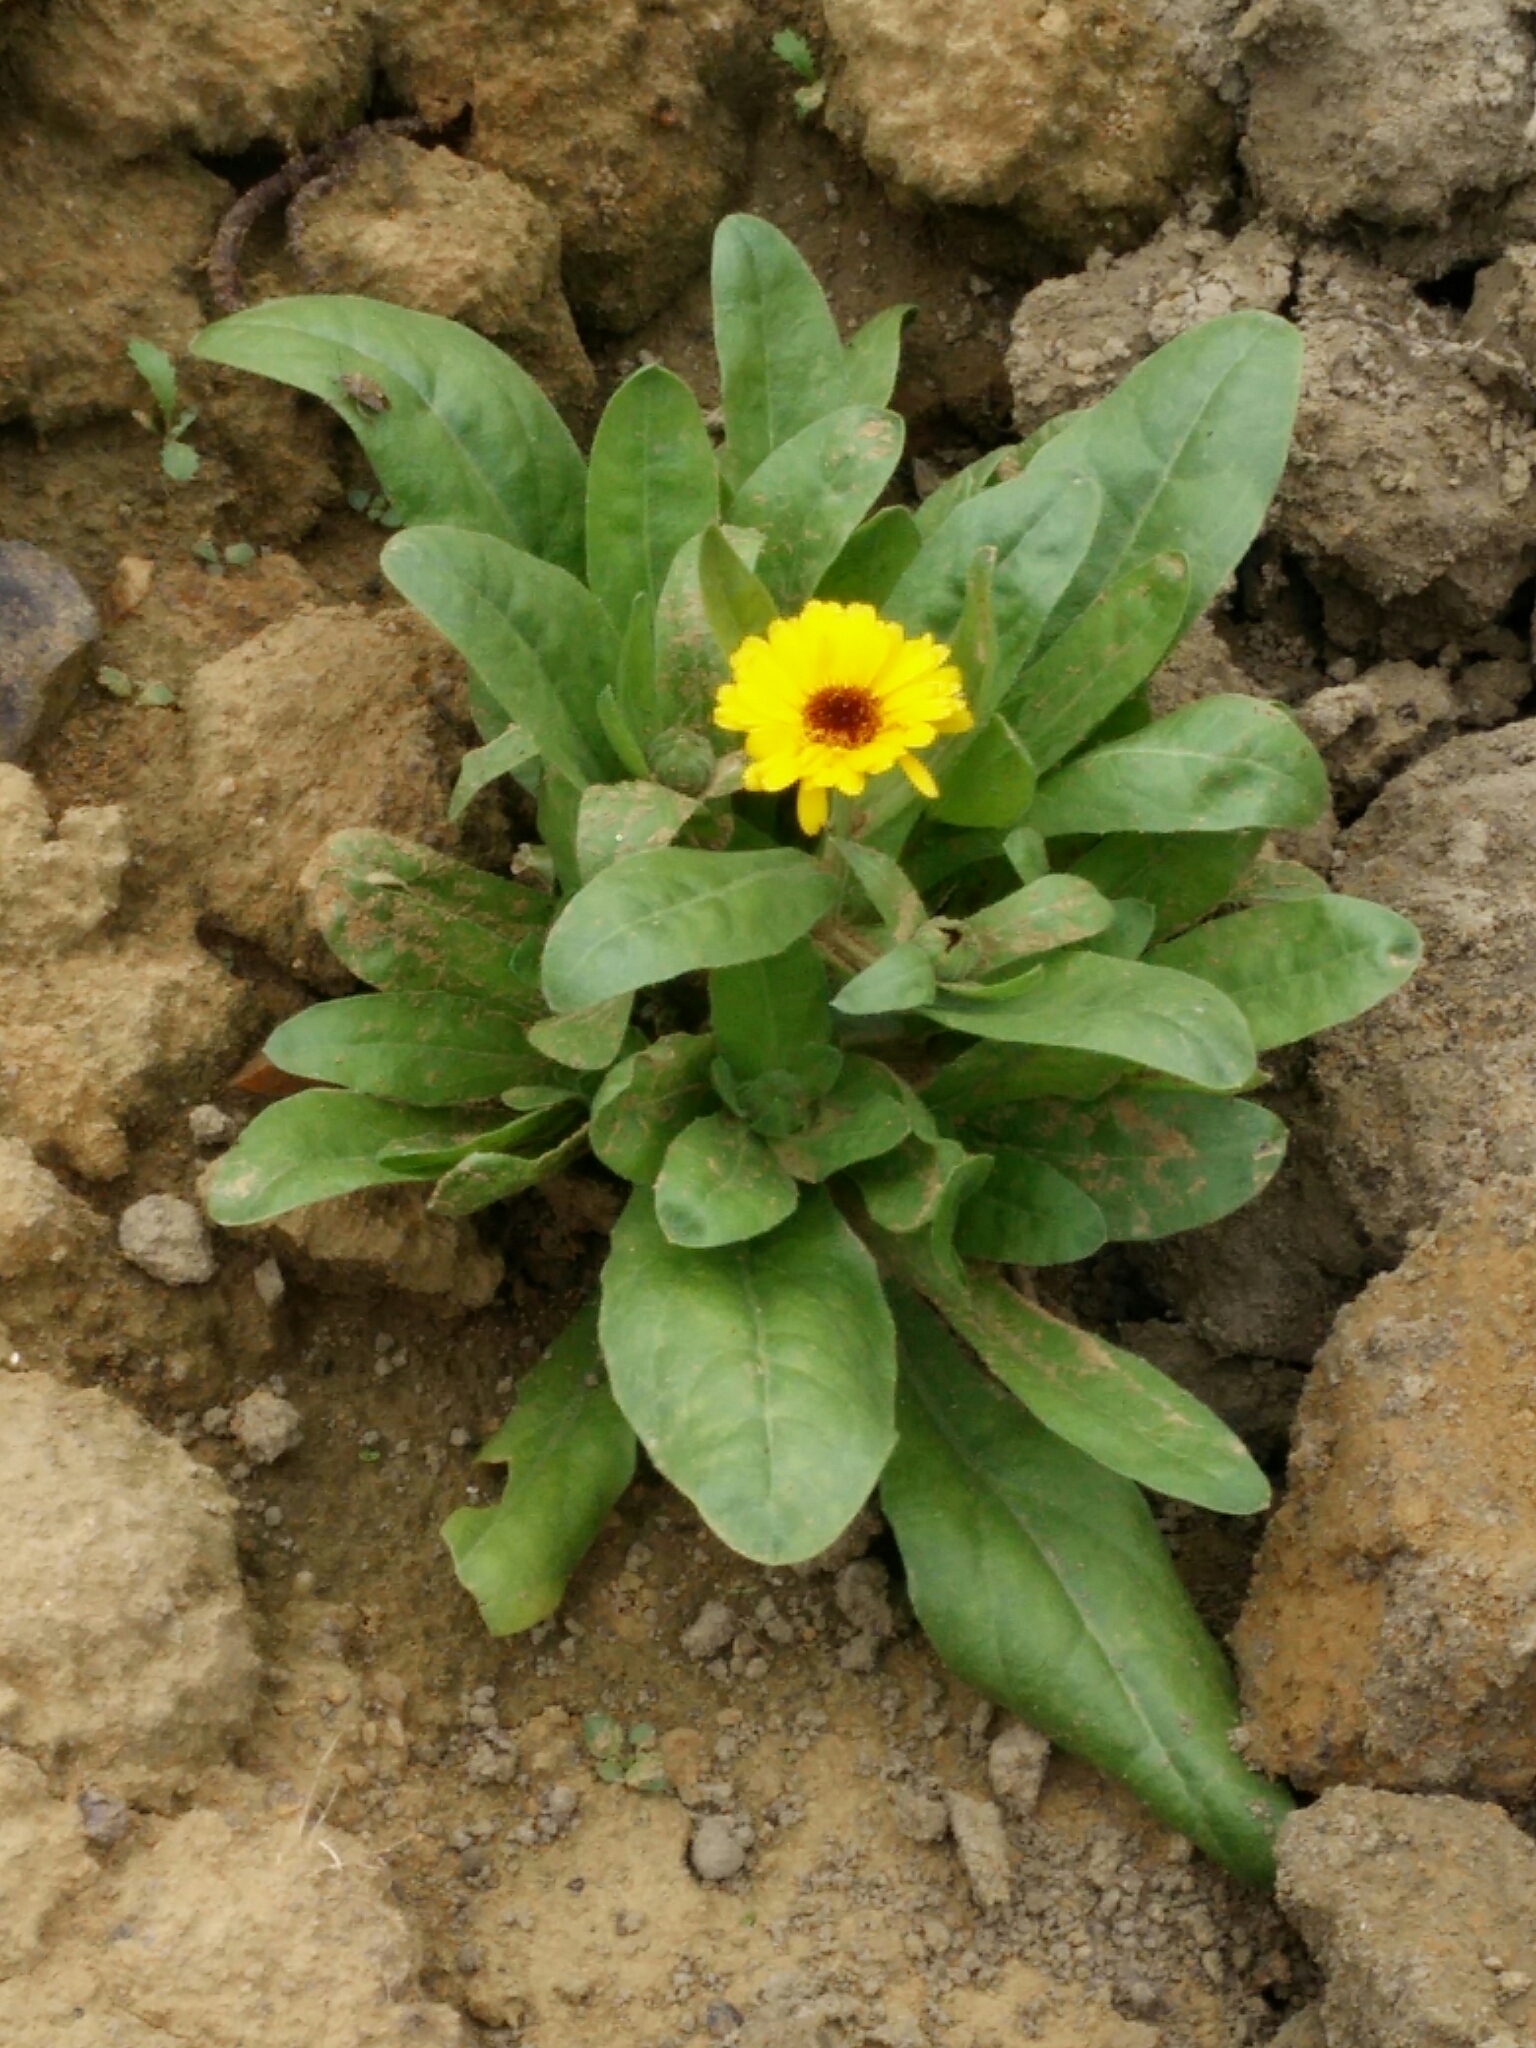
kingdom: Plantae
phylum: Tracheophyta
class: Magnoliopsida
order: Asterales
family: Asteraceae
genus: Calendula
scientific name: Calendula officinalis
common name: Pot marigold
